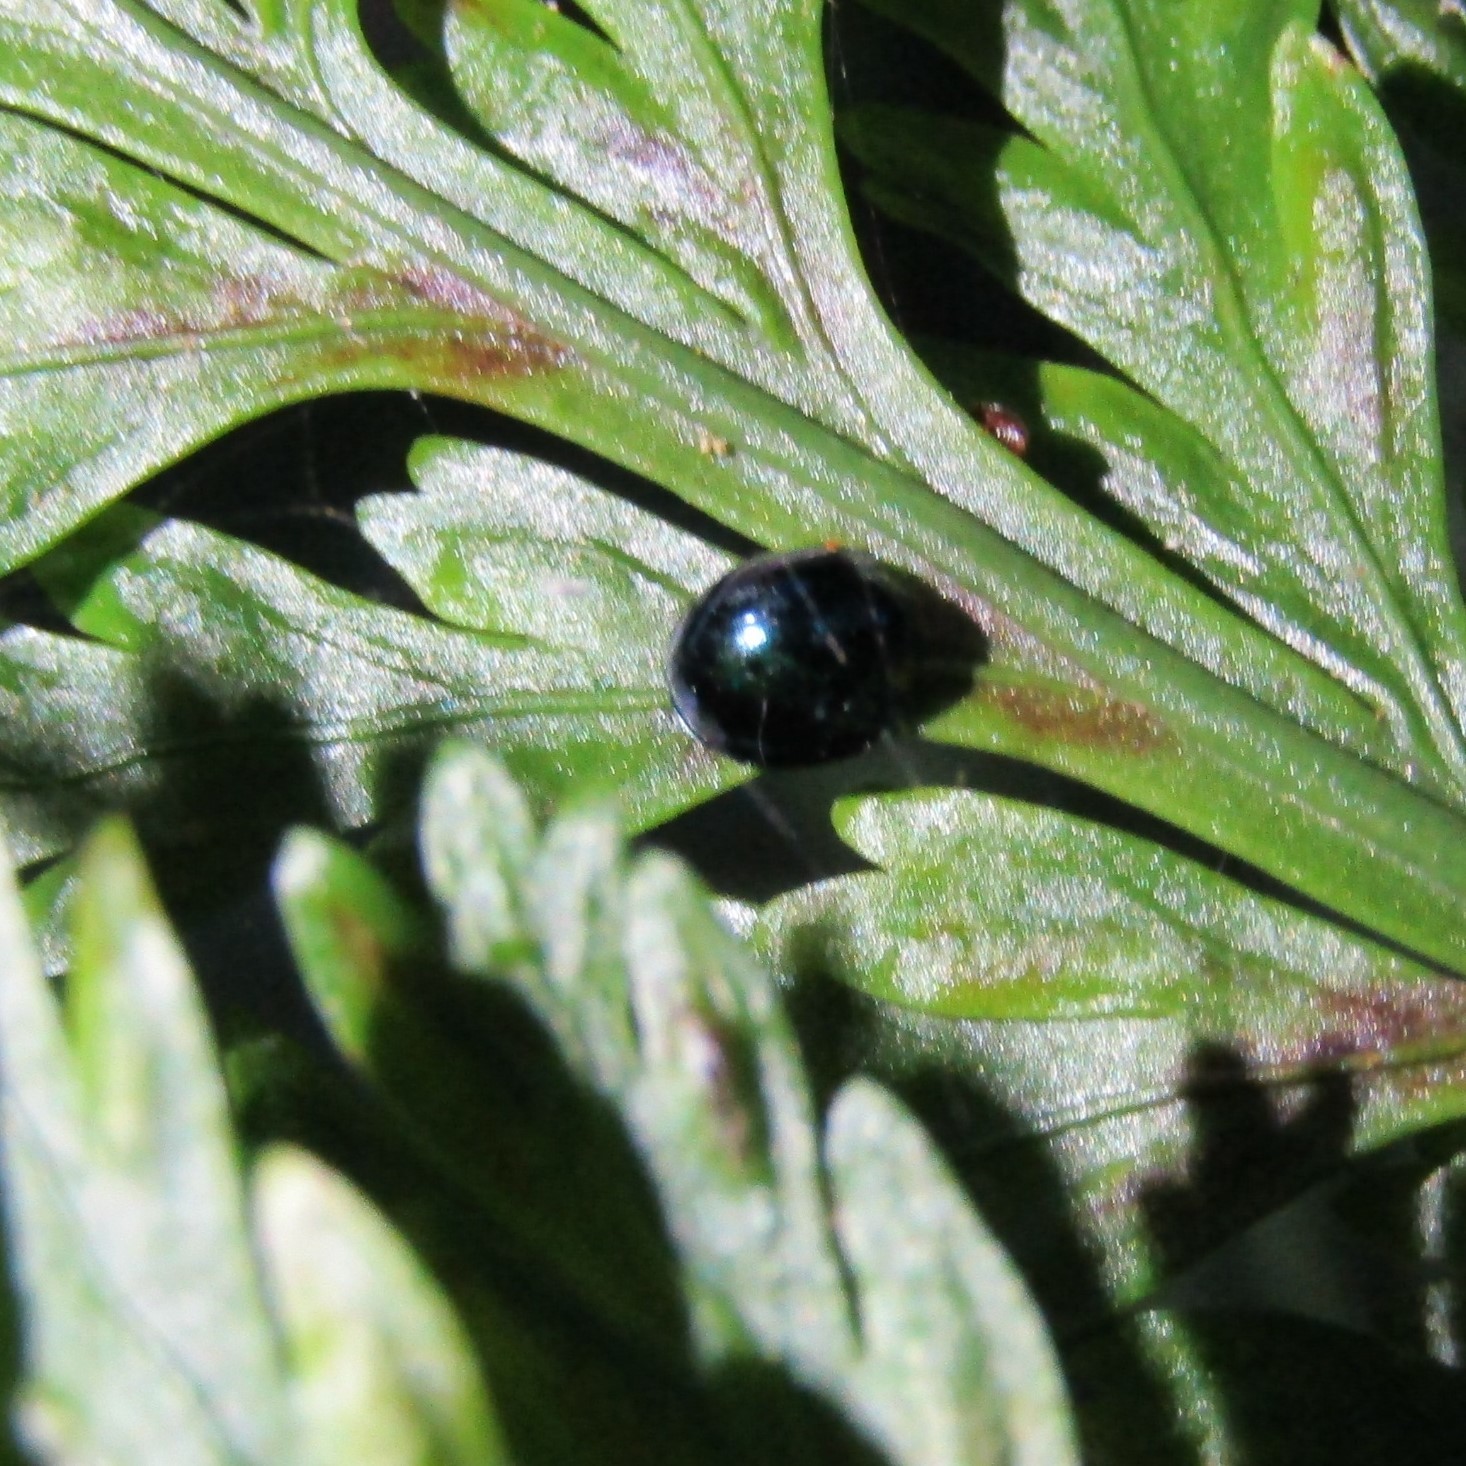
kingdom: Animalia
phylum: Arthropoda
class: Insecta
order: Coleoptera
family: Coccinellidae
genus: Halmus
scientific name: Halmus chalybeus
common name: Steel blue ladybird beetle
